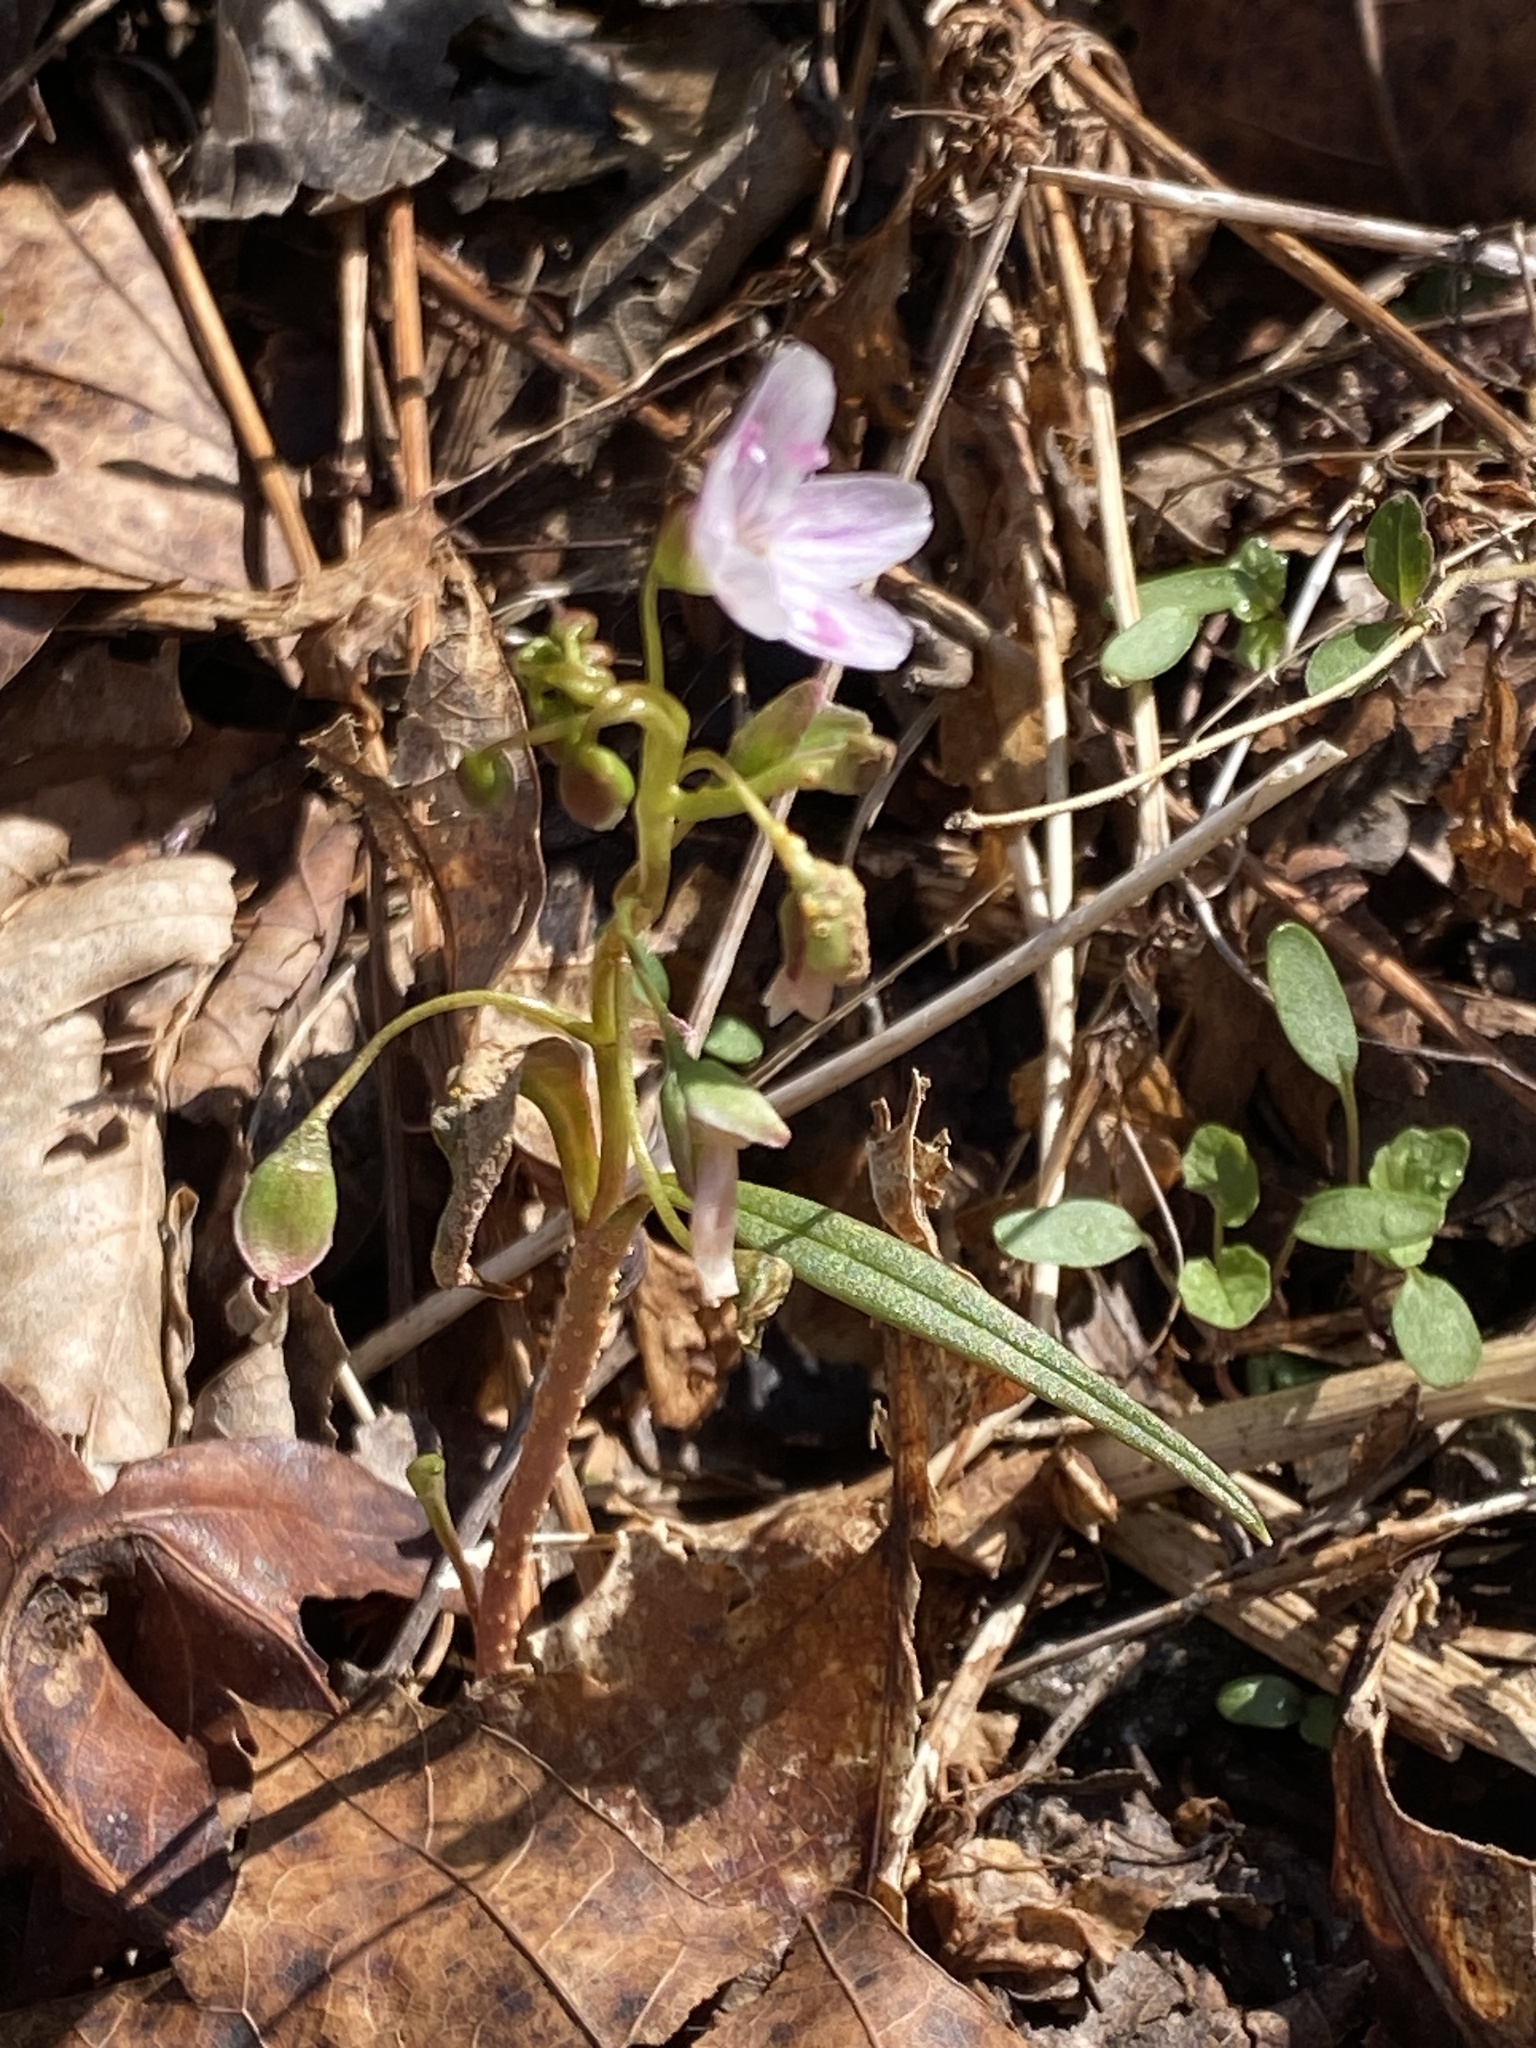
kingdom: Plantae
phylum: Tracheophyta
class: Magnoliopsida
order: Caryophyllales
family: Montiaceae
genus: Claytonia
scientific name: Claytonia virginica
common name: Virginia springbeauty
